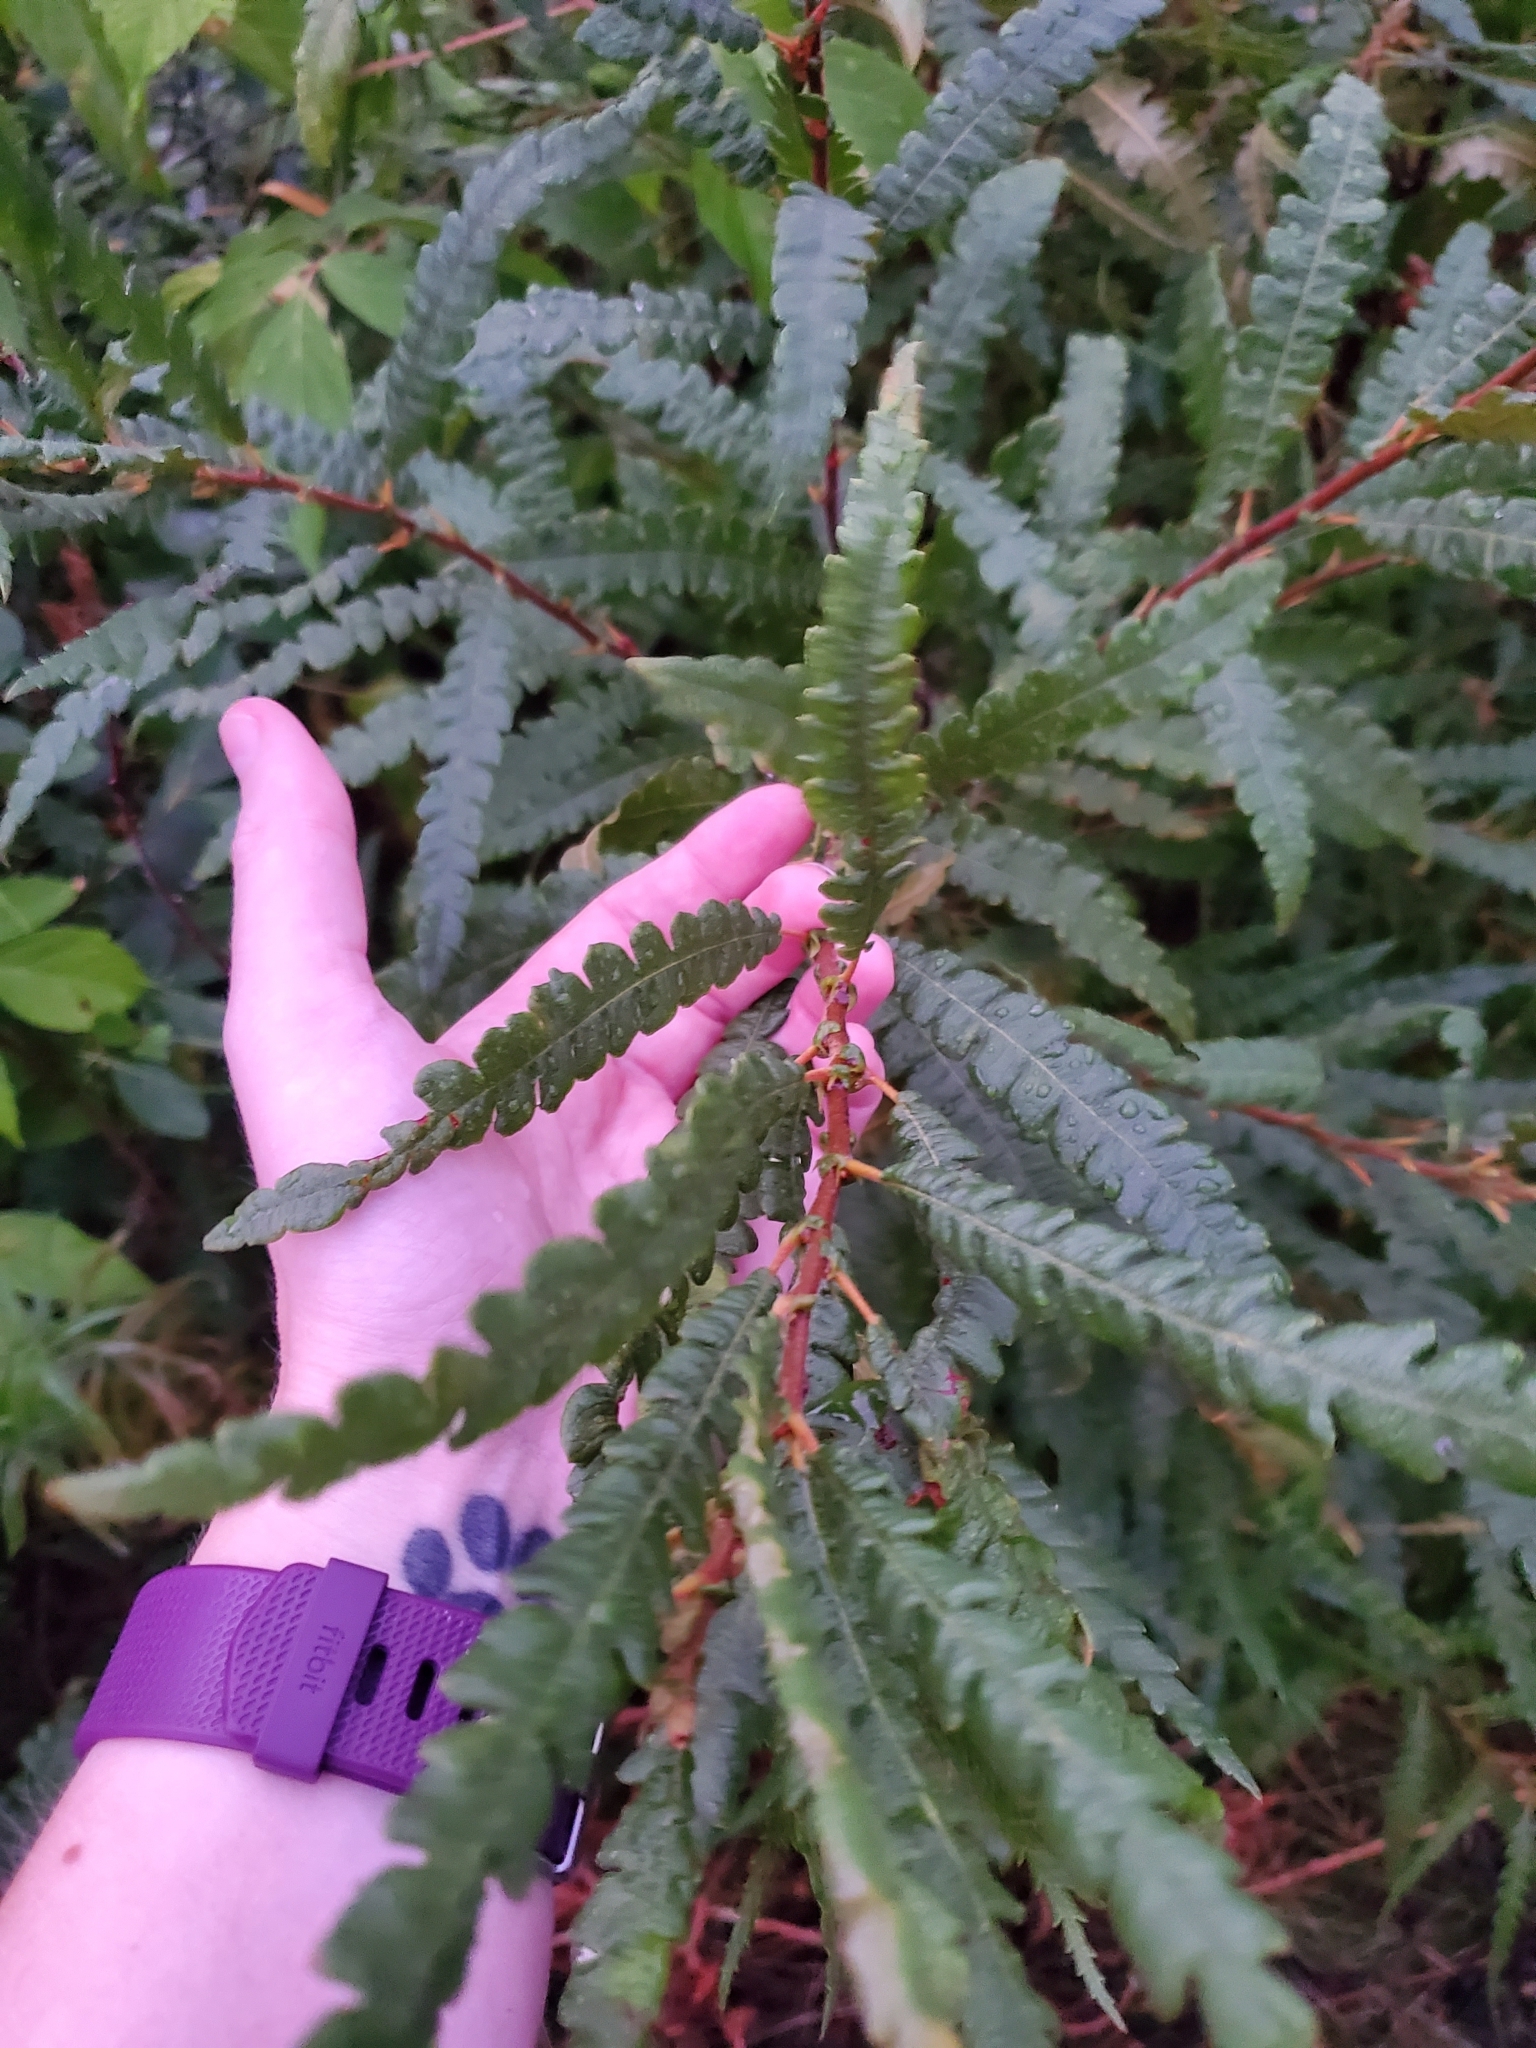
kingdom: Plantae
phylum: Tracheophyta
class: Magnoliopsida
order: Fagales
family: Myricaceae
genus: Comptonia
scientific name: Comptonia peregrina
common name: Sweet-fern
